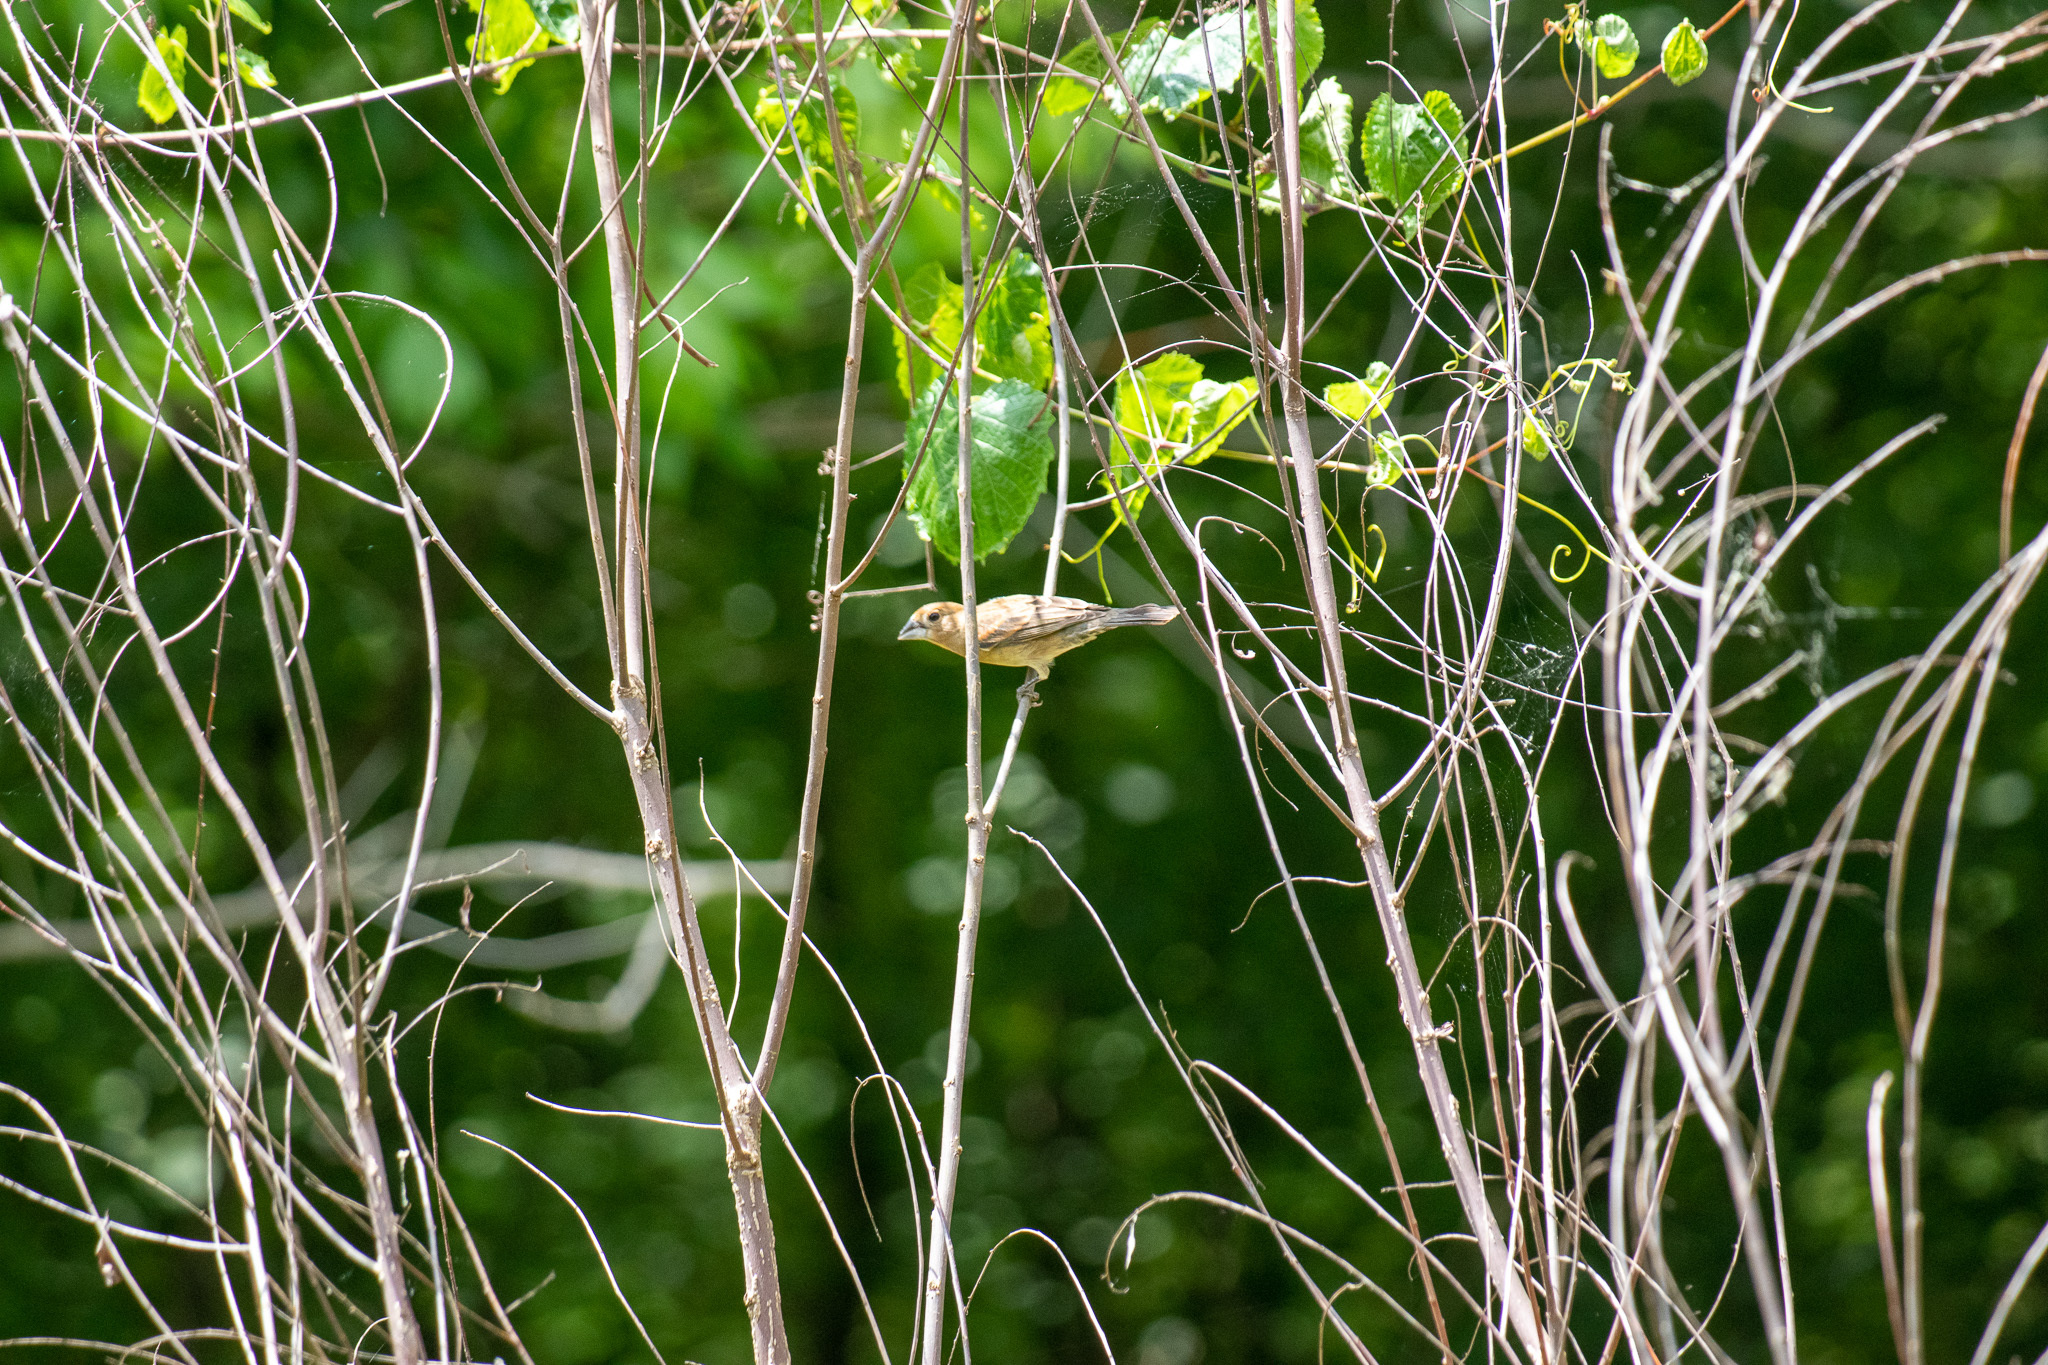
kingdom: Animalia
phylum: Chordata
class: Aves
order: Passeriformes
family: Cardinalidae
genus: Passerina
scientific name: Passerina caerulea
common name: Blue grosbeak
